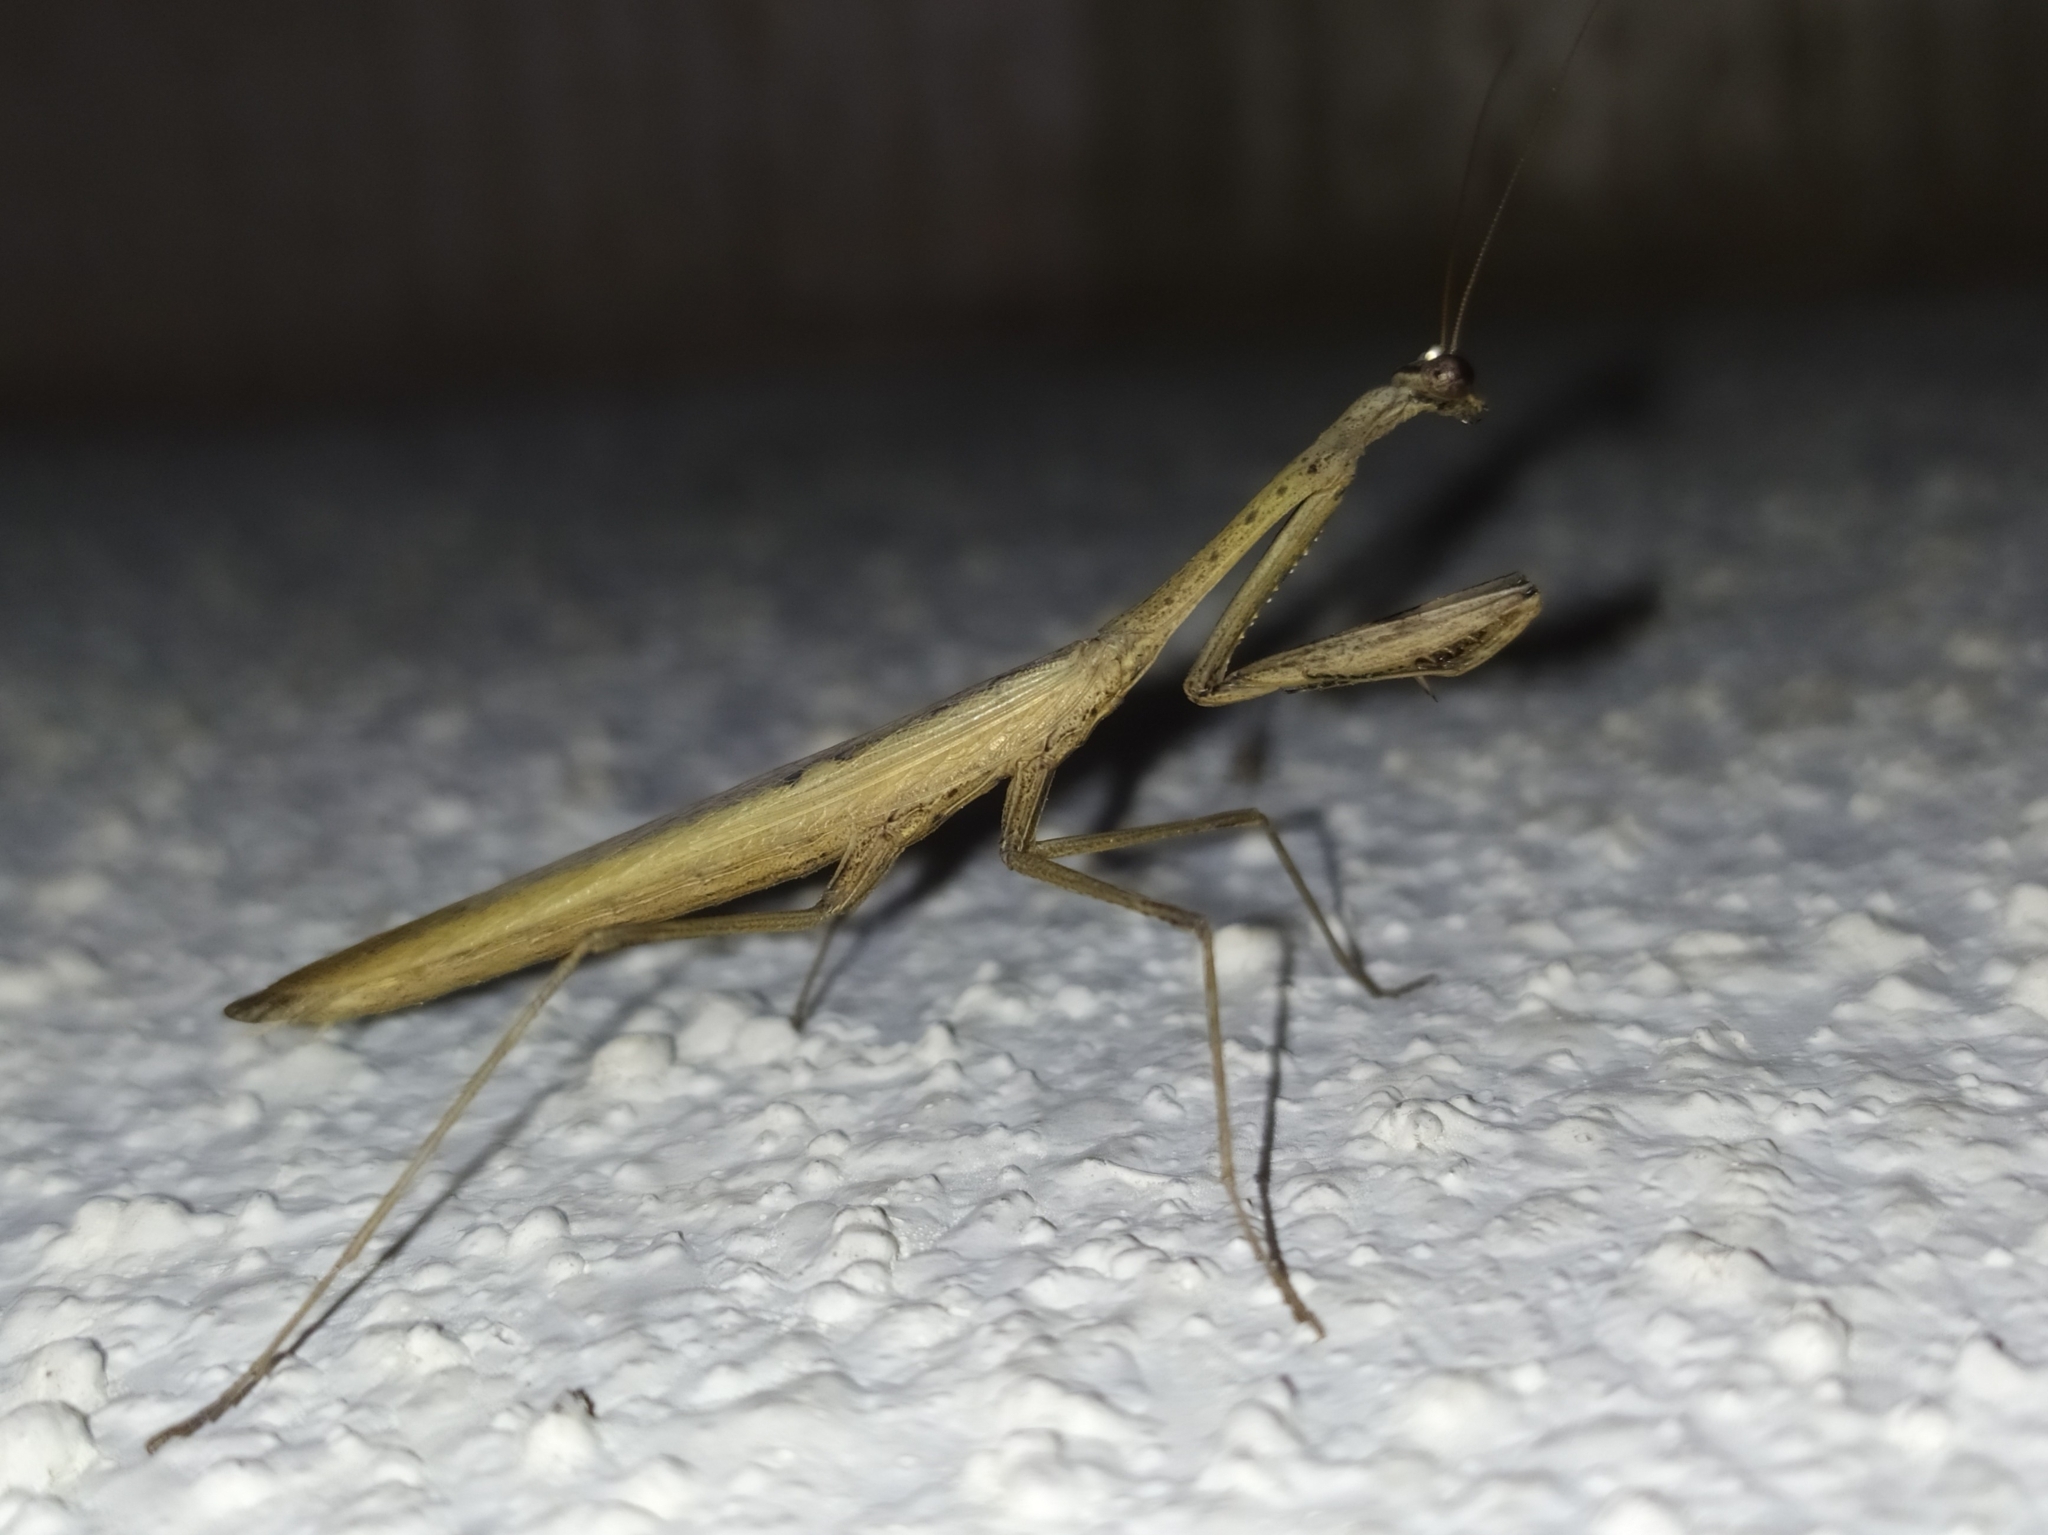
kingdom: Animalia
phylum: Arthropoda
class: Insecta
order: Mantodea
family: Mantidae
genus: Statilia
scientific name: Statilia maculata
